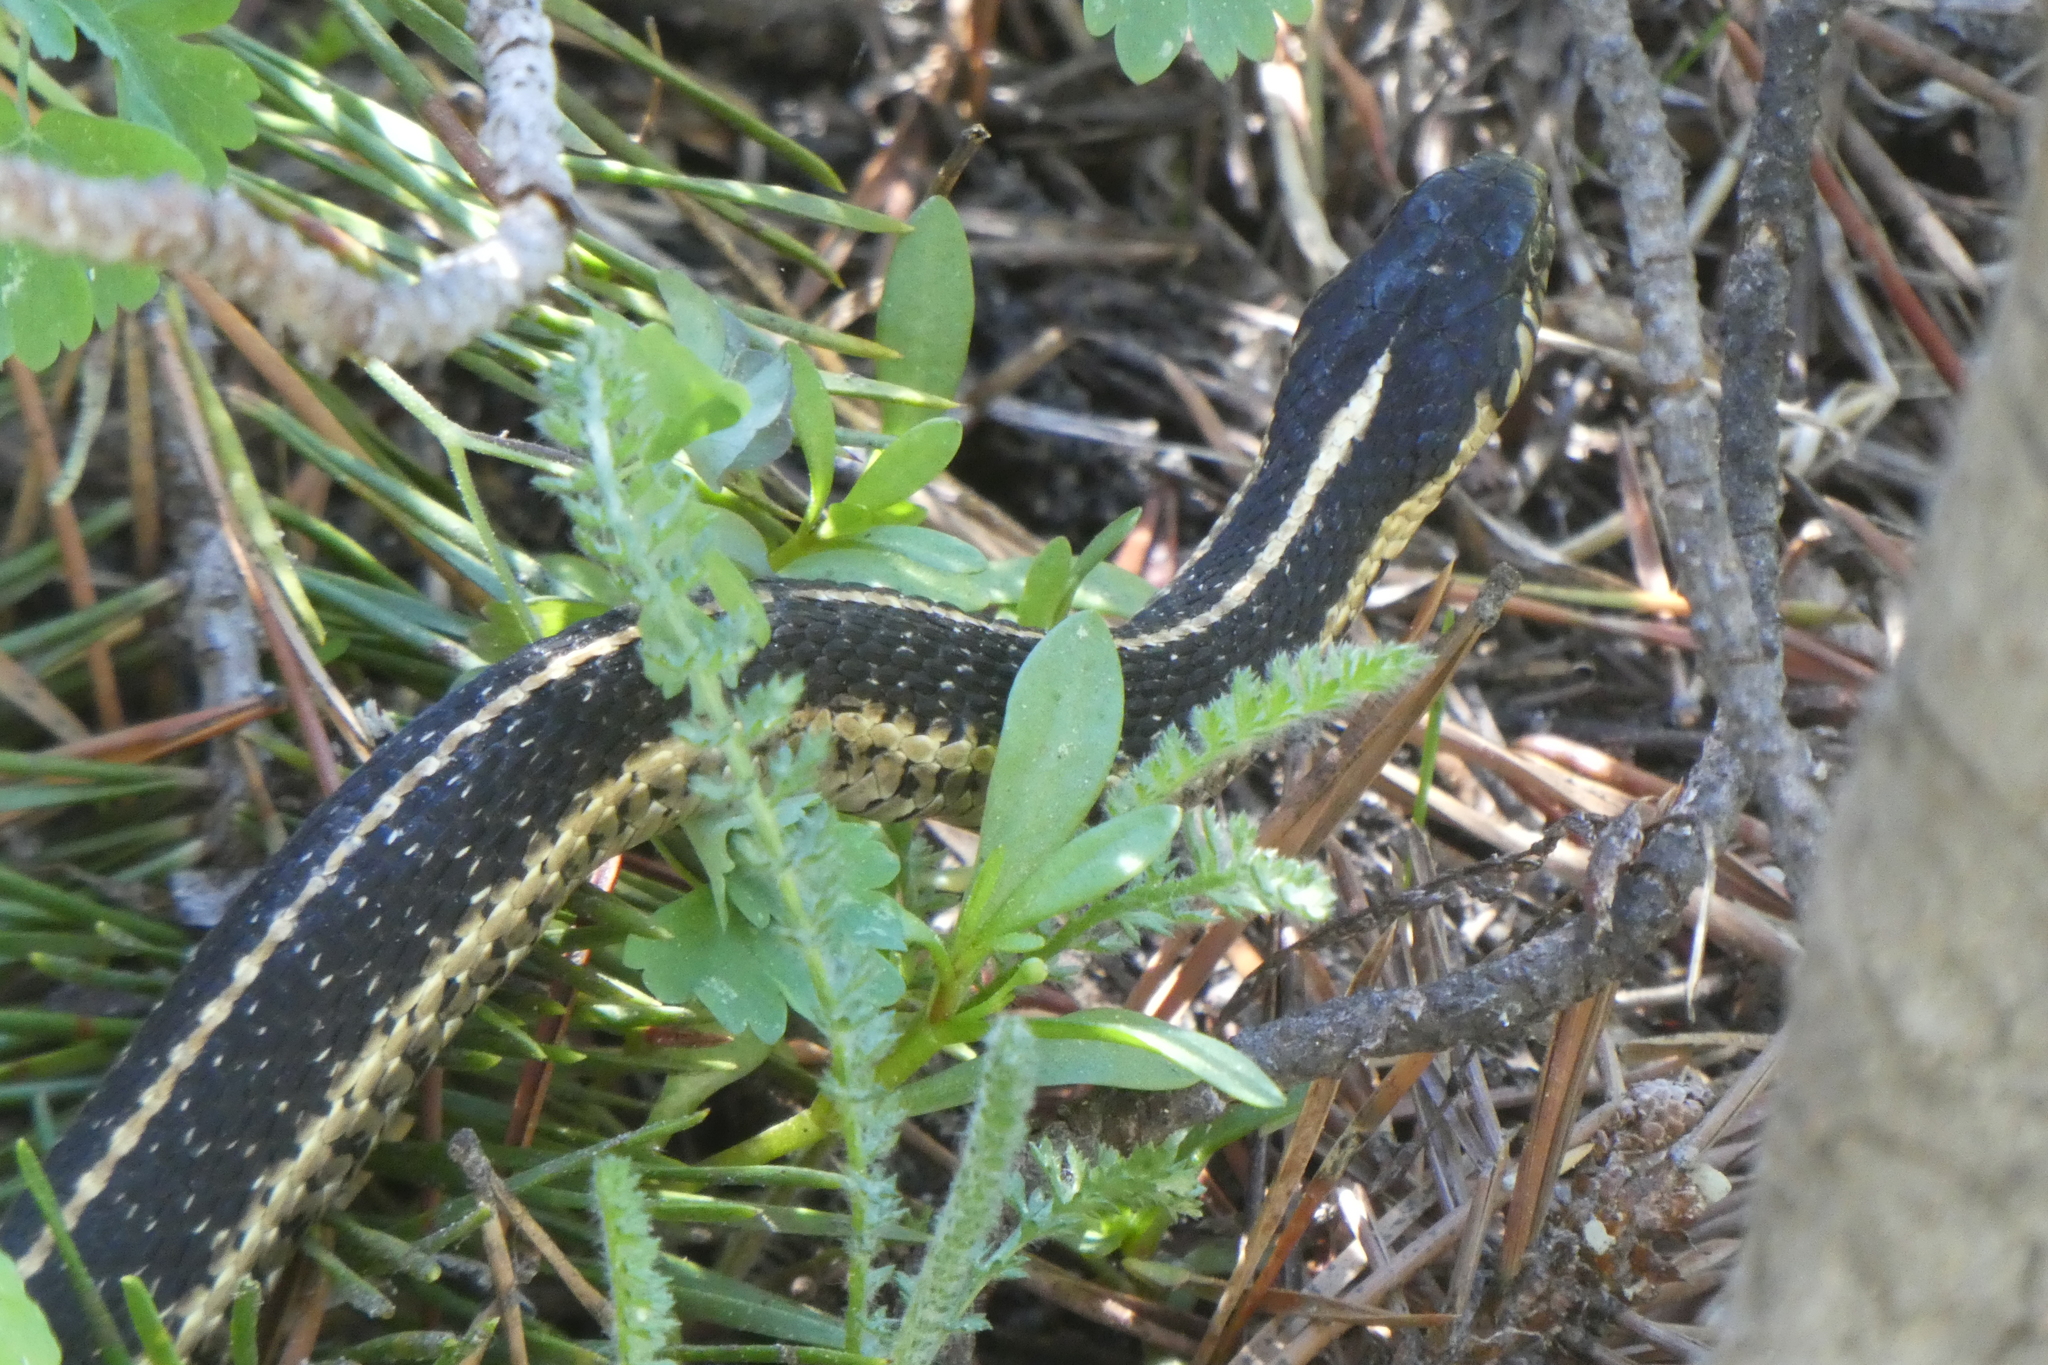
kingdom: Animalia
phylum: Chordata
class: Squamata
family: Colubridae
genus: Thamnophis
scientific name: Thamnophis elegans
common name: Western terrestrial garter snake
